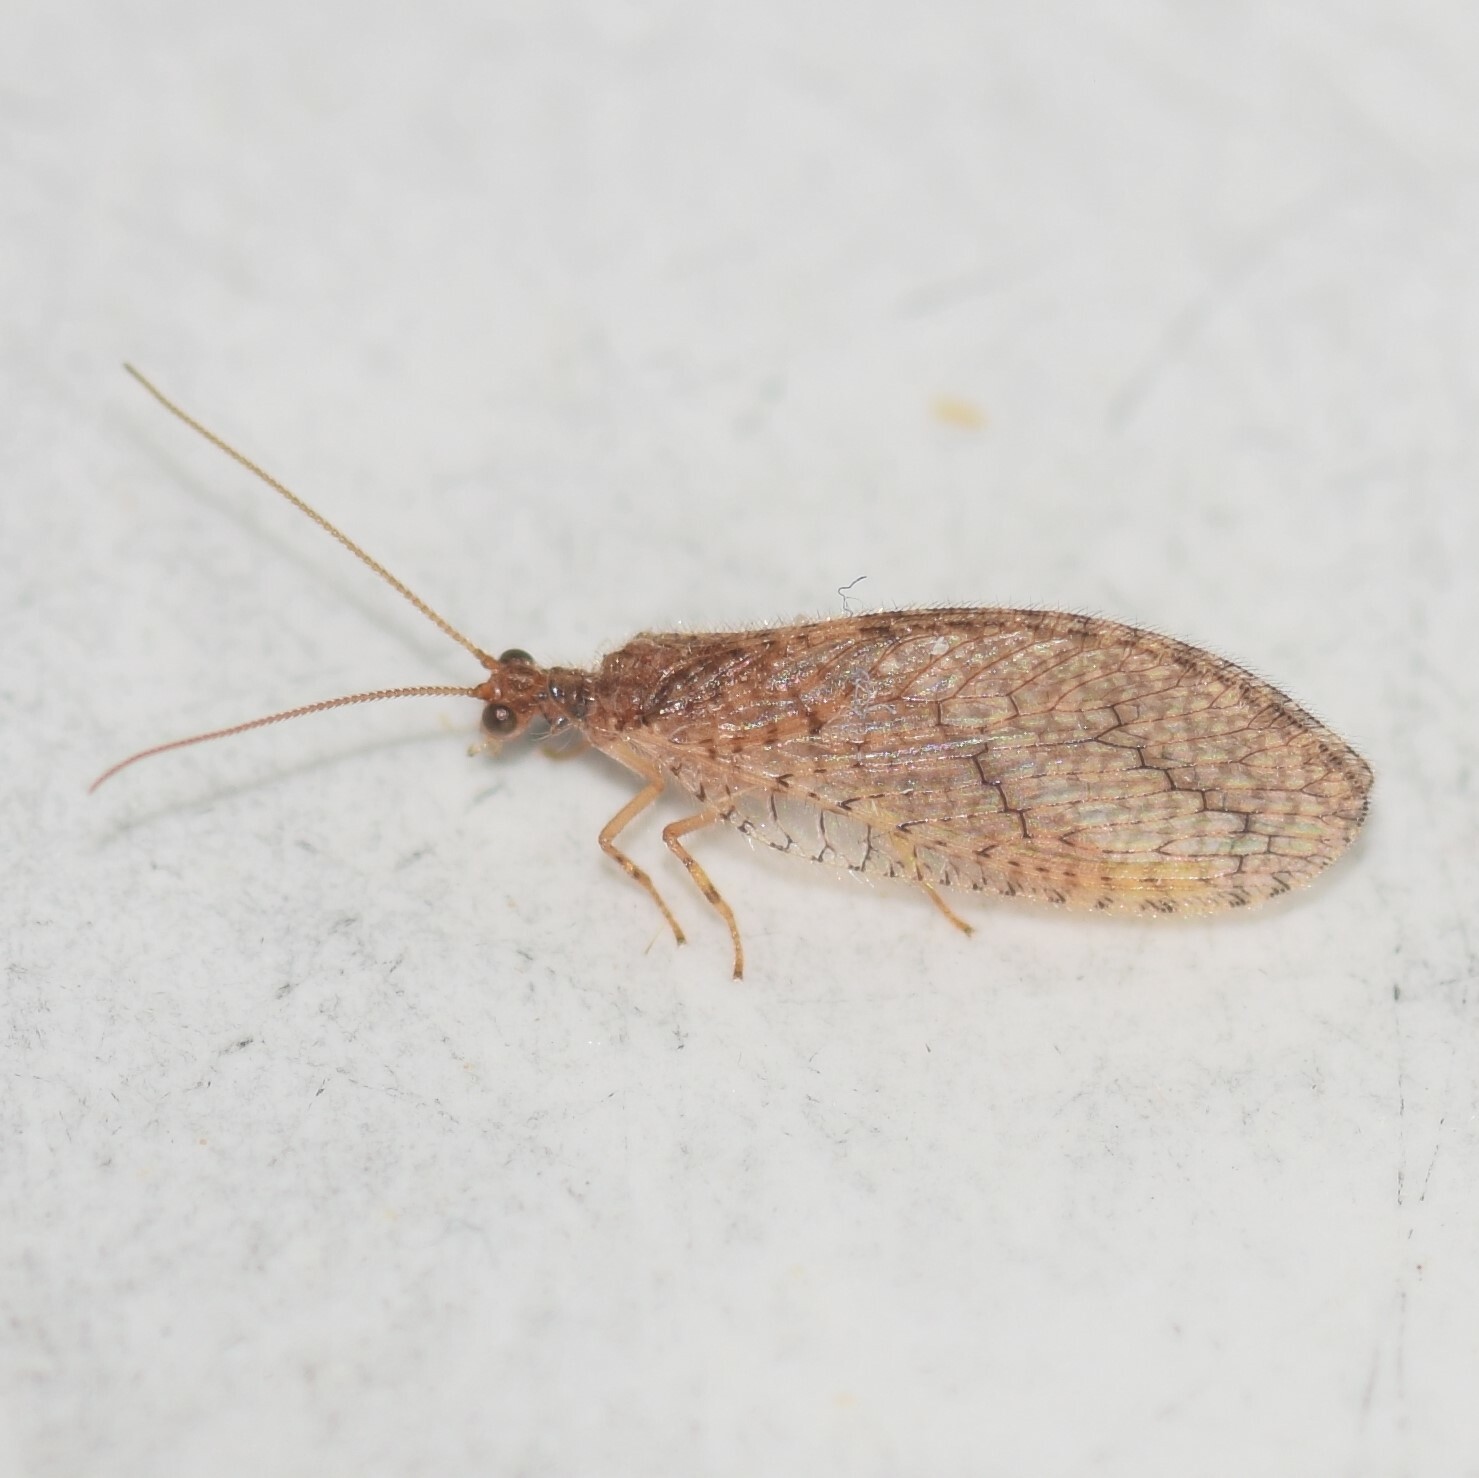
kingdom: Animalia
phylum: Arthropoda
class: Insecta
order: Neuroptera
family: Hemerobiidae
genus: Micromus
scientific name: Micromus subanticus
